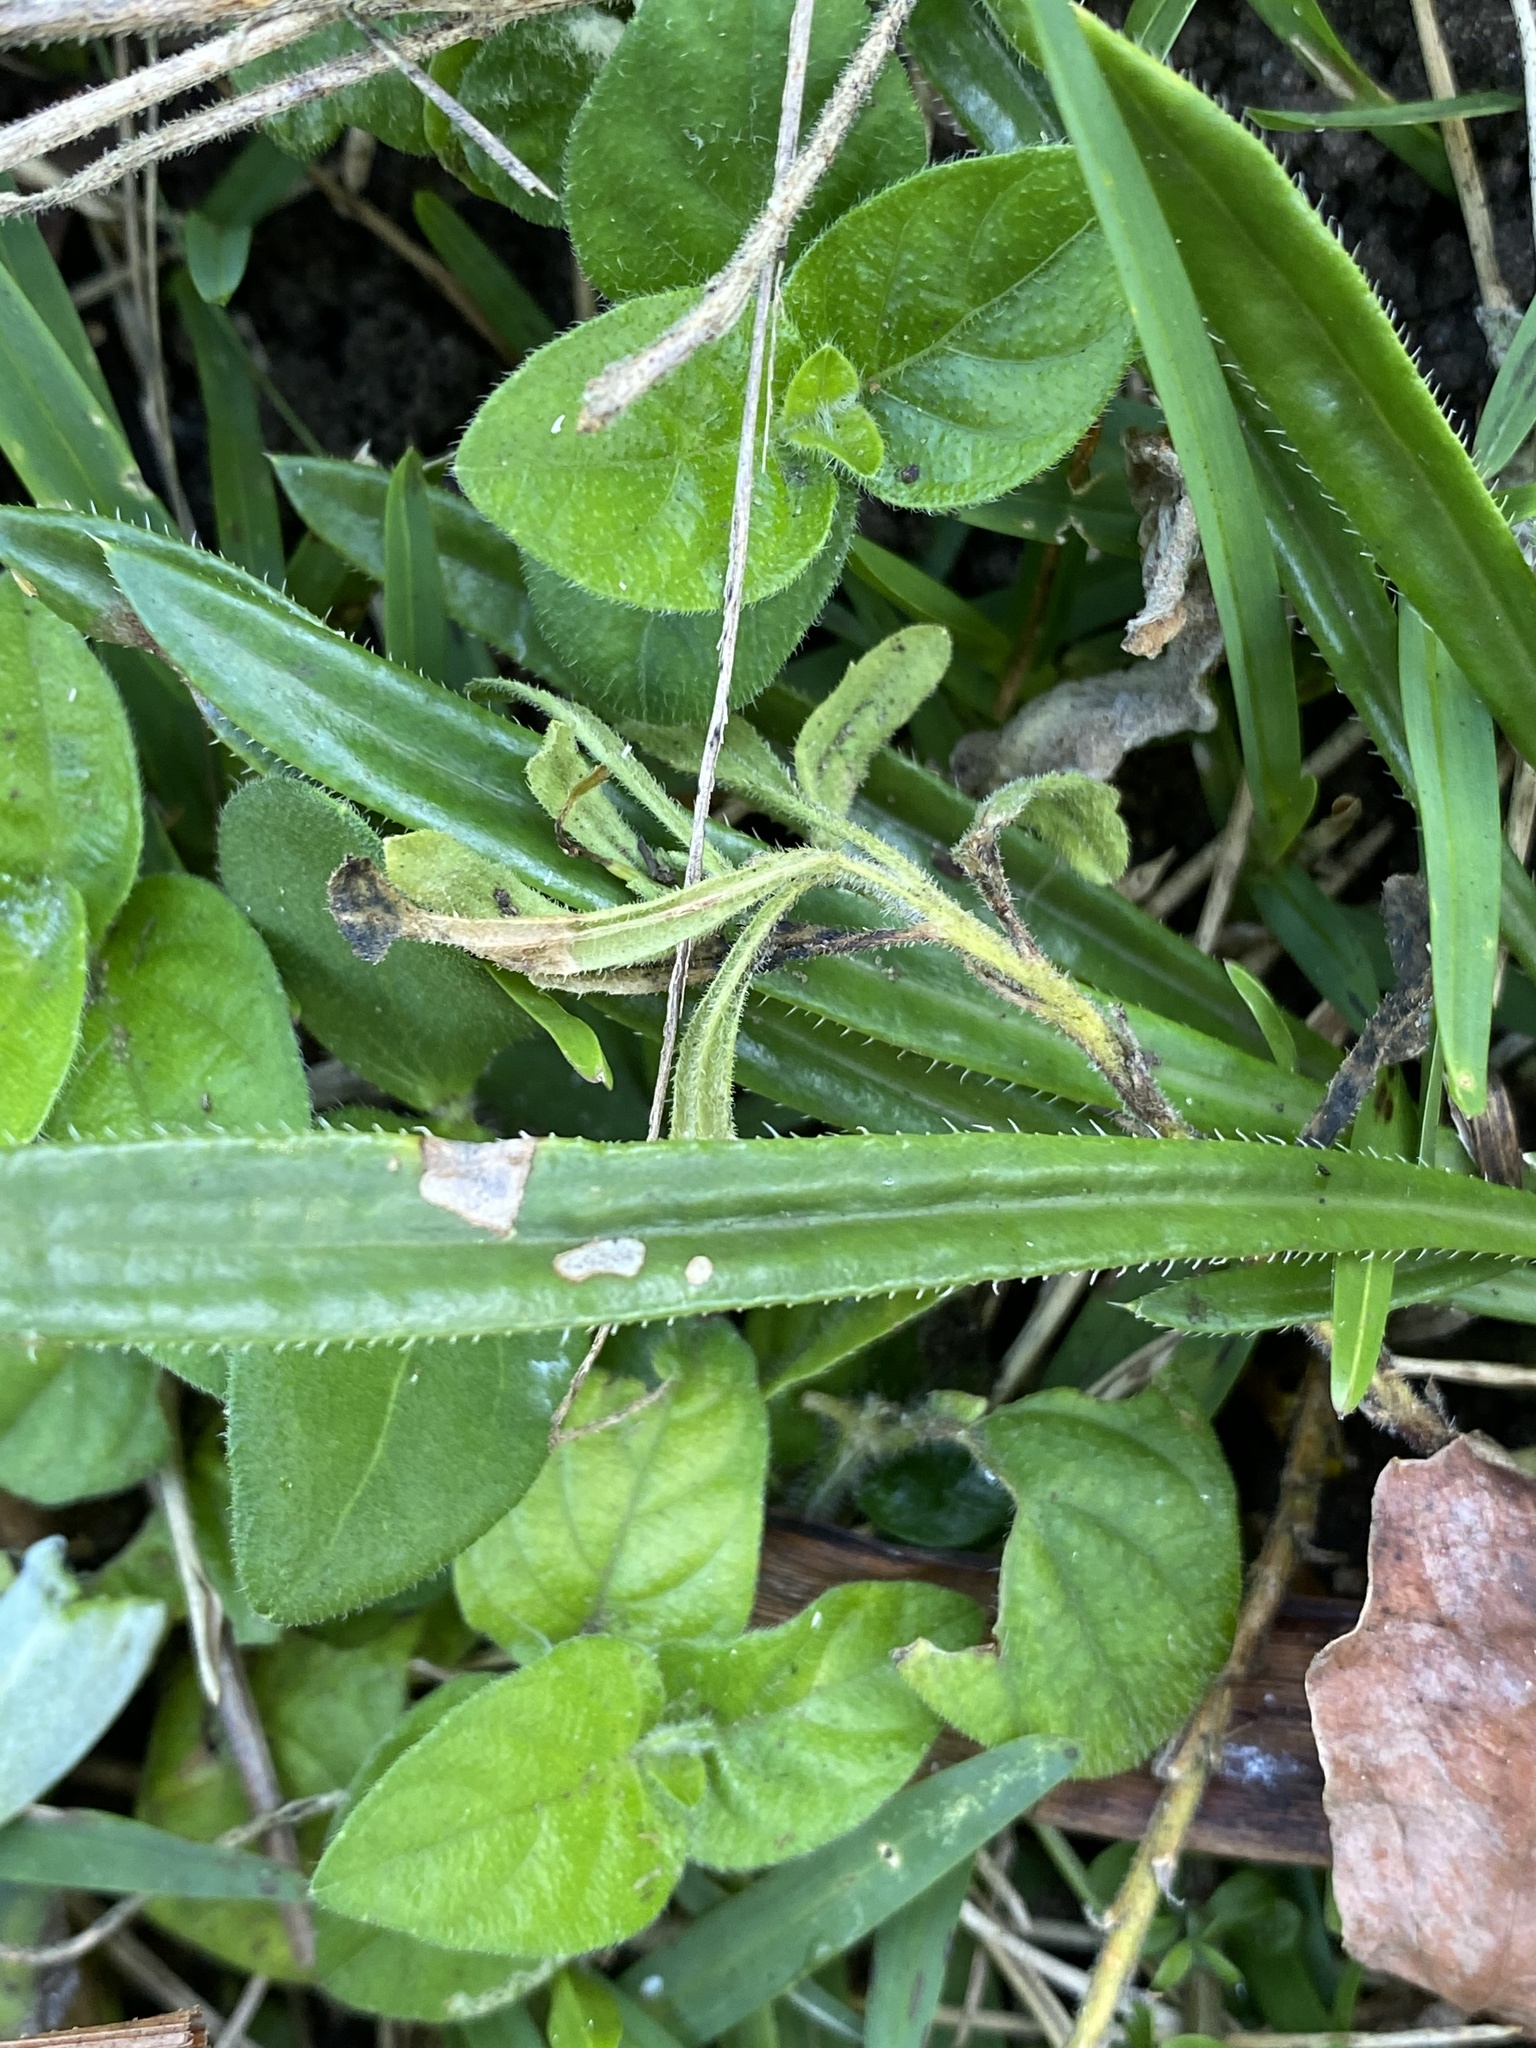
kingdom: Plantae
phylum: Tracheophyta
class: Magnoliopsida
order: Asterales
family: Asteraceae
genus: Gazania
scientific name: Gazania linearis
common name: Treasureflower
